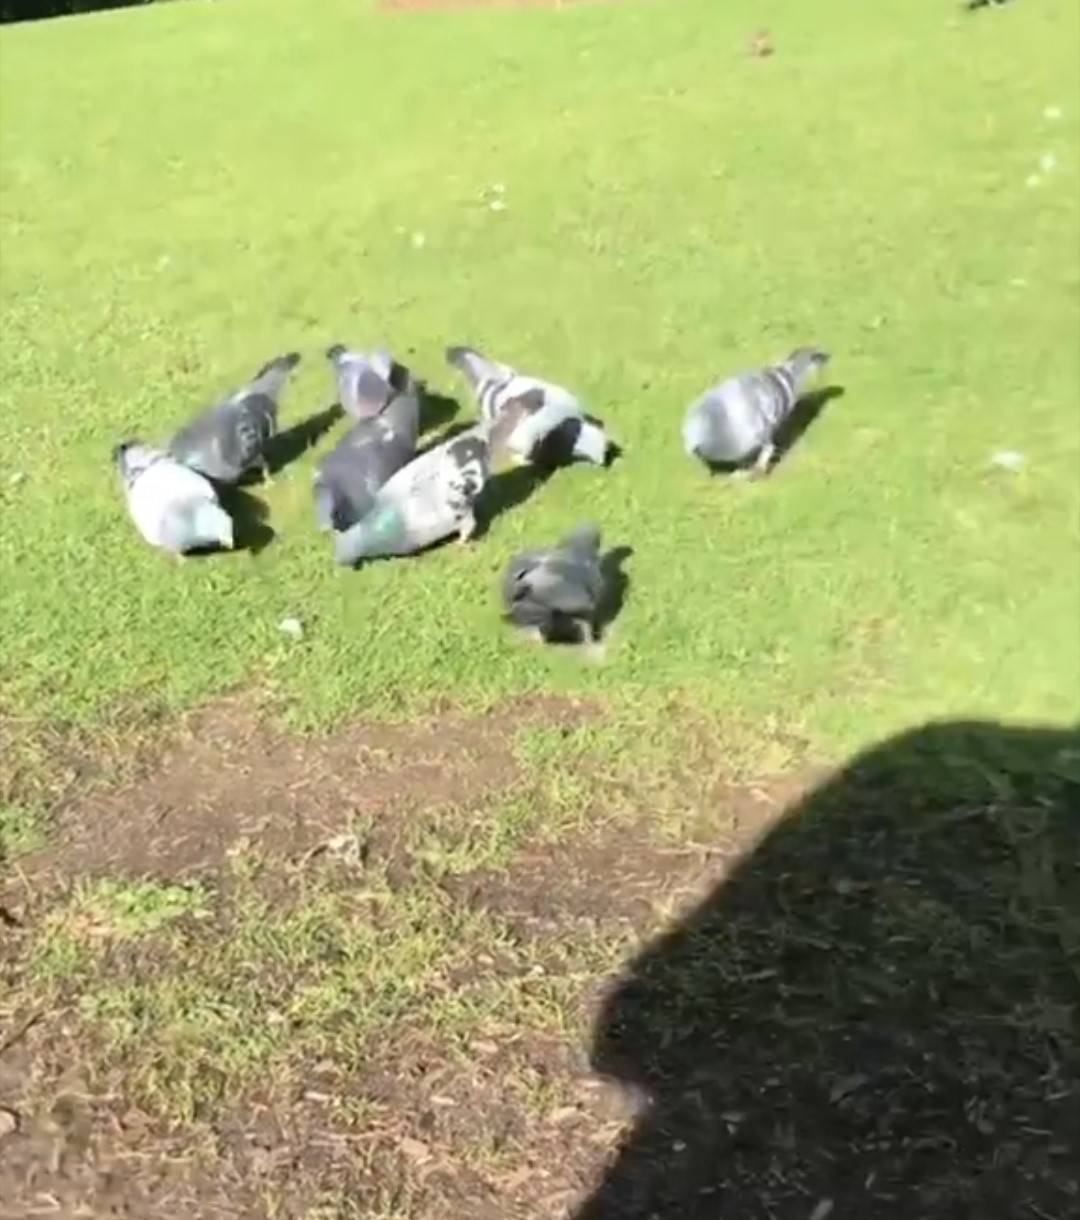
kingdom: Animalia
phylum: Chordata
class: Aves
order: Columbiformes
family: Columbidae
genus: Columba
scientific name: Columba livia
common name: Rock pigeon
